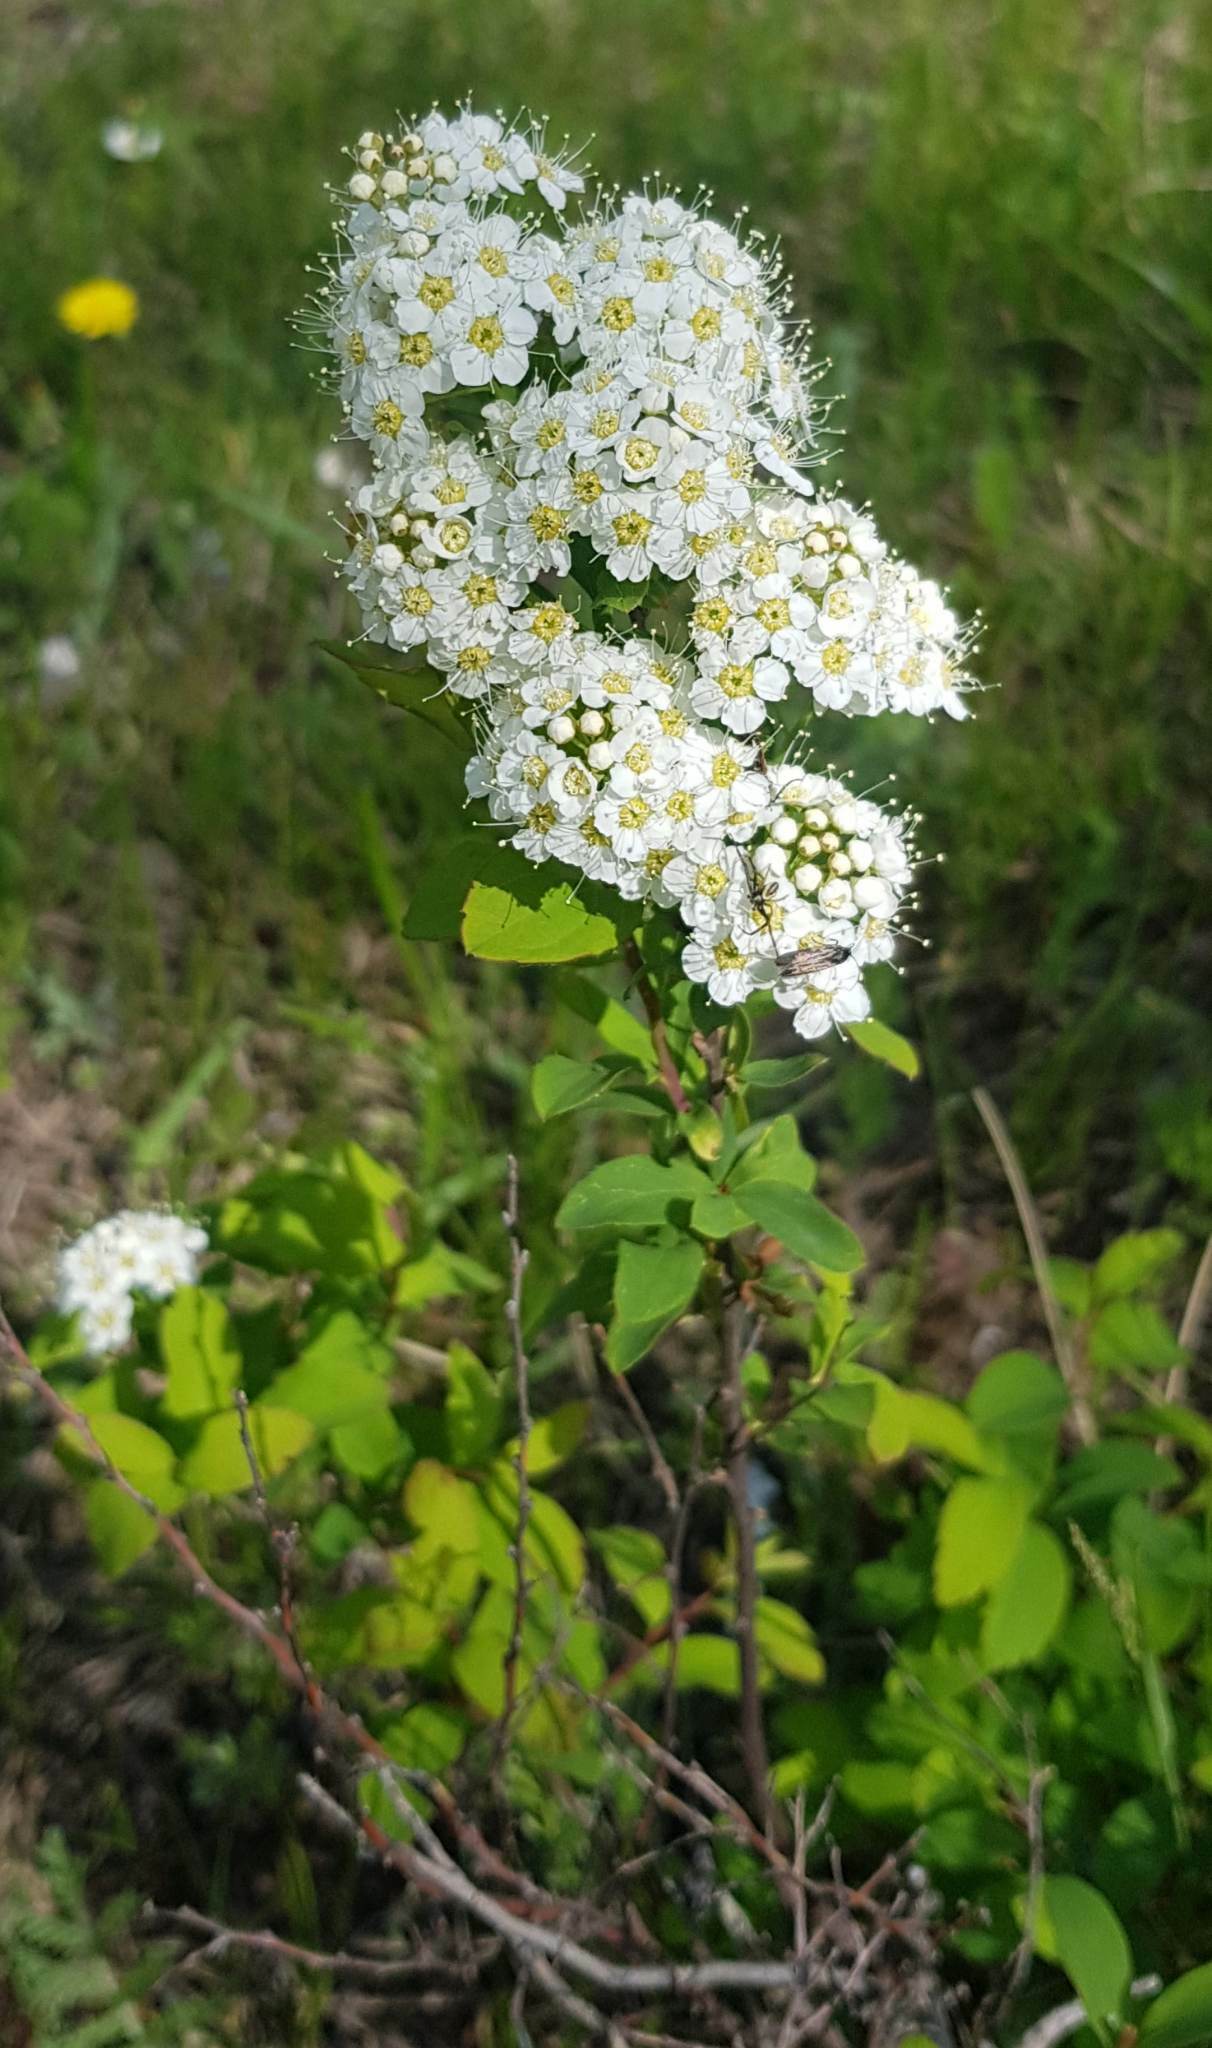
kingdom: Plantae
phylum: Tracheophyta
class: Magnoliopsida
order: Rosales
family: Rosaceae
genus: Spiraea
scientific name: Spiraea flexuosa
